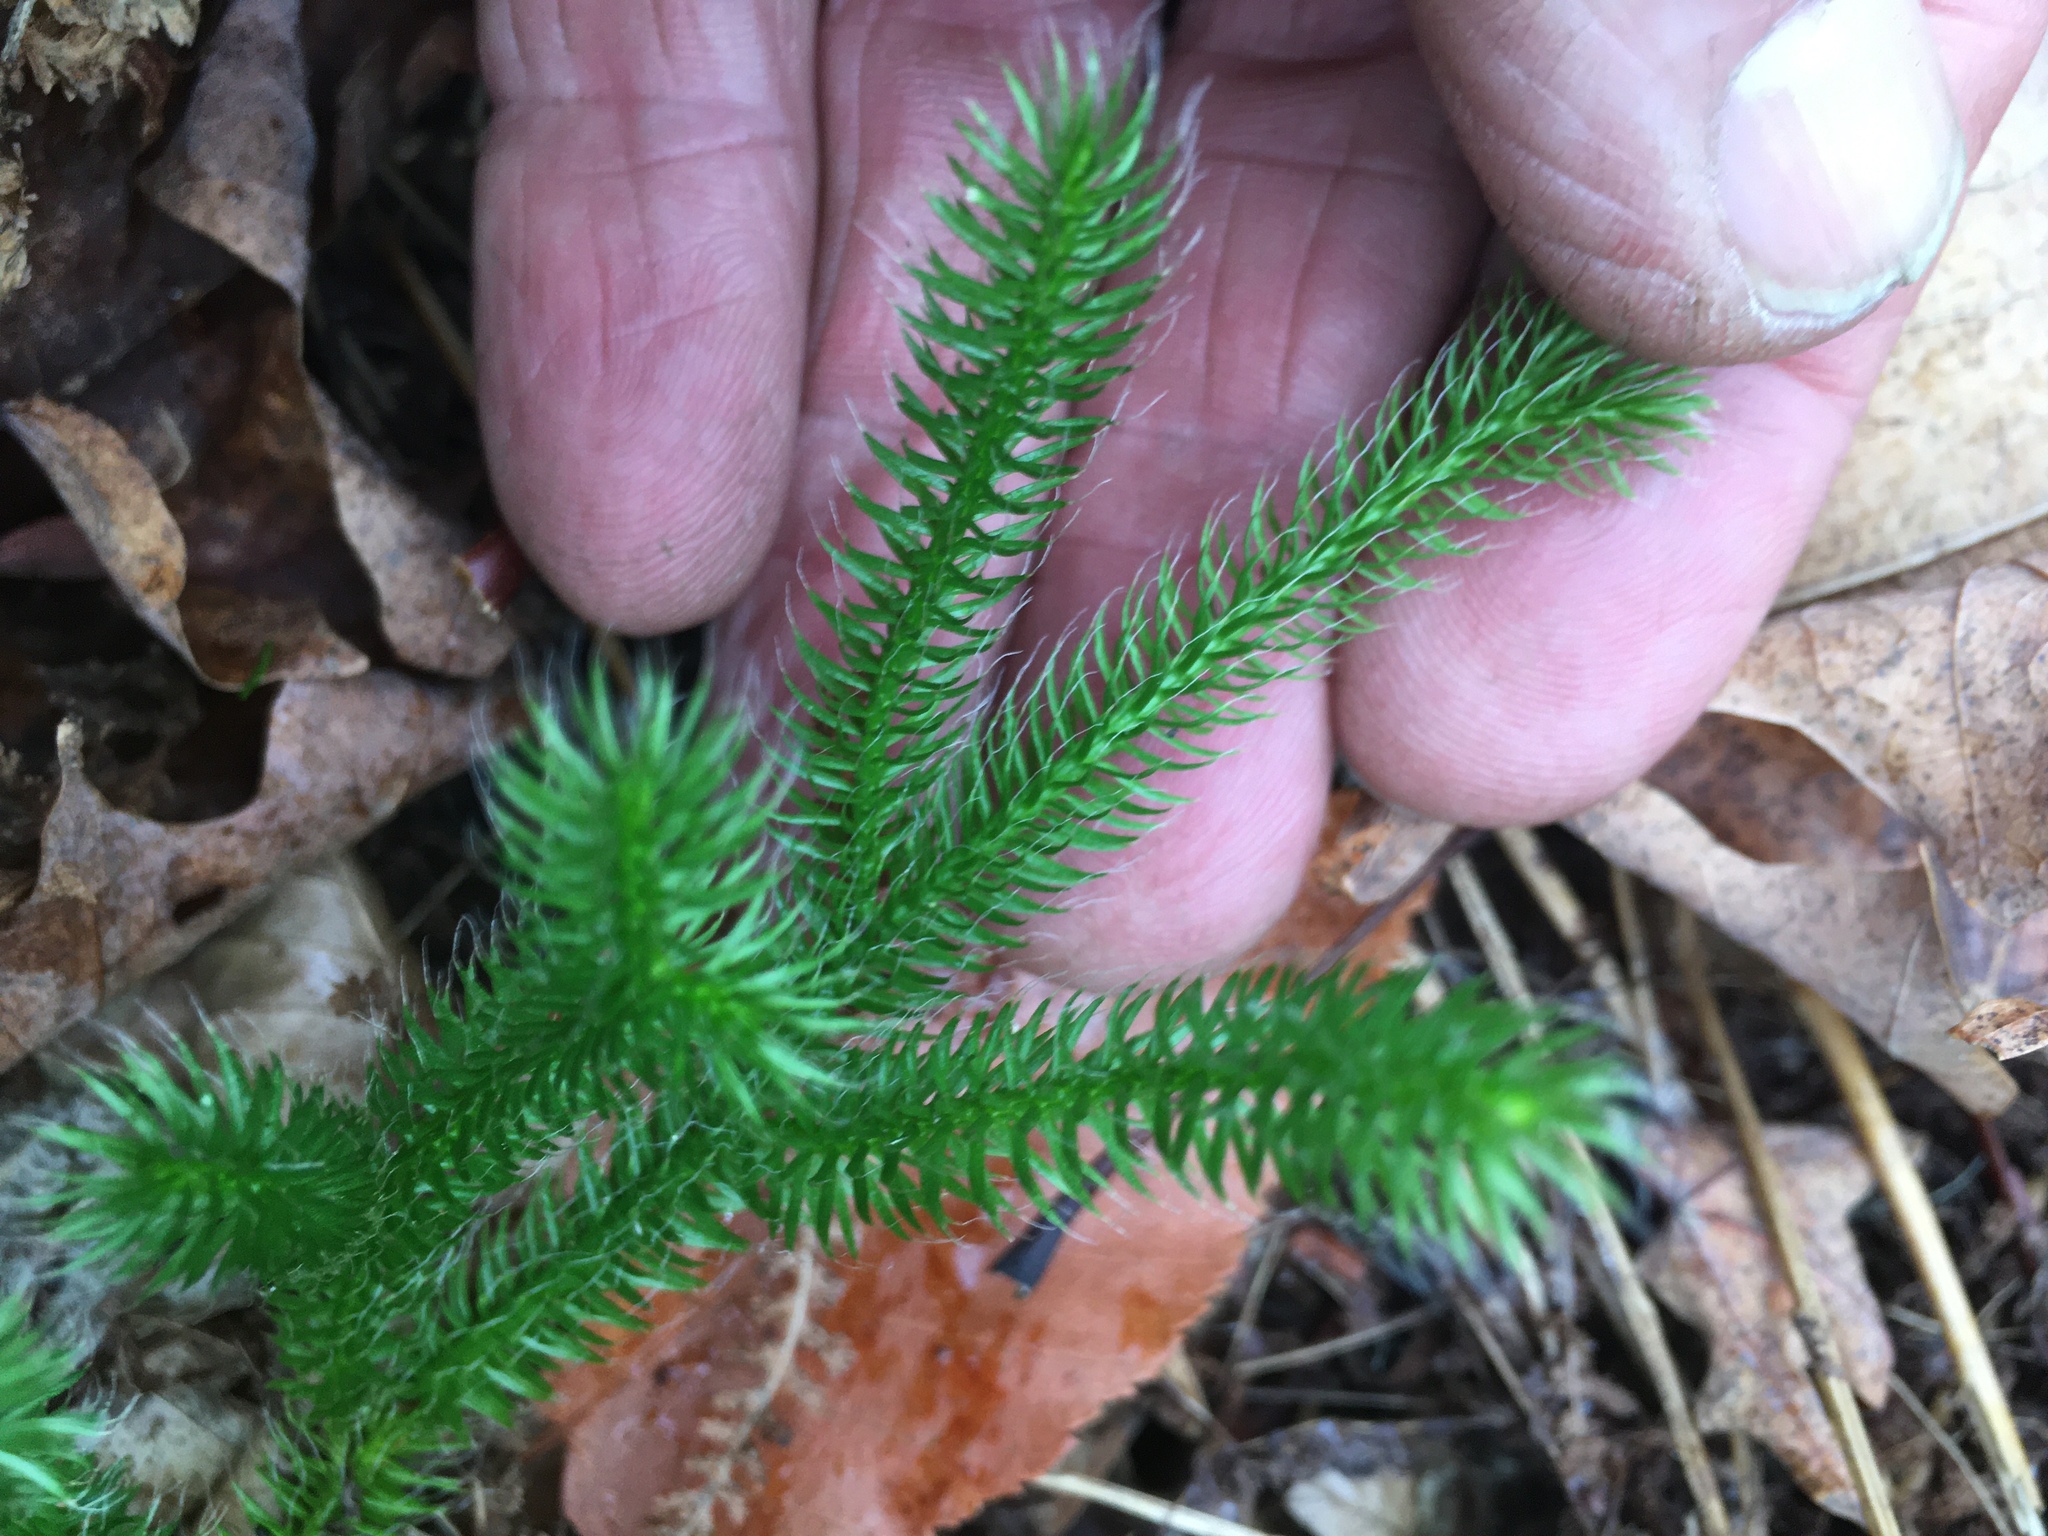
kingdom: Plantae
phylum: Tracheophyta
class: Lycopodiopsida
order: Lycopodiales
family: Lycopodiaceae
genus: Lycopodium
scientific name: Lycopodium clavatum
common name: Stag's-horn clubmoss
